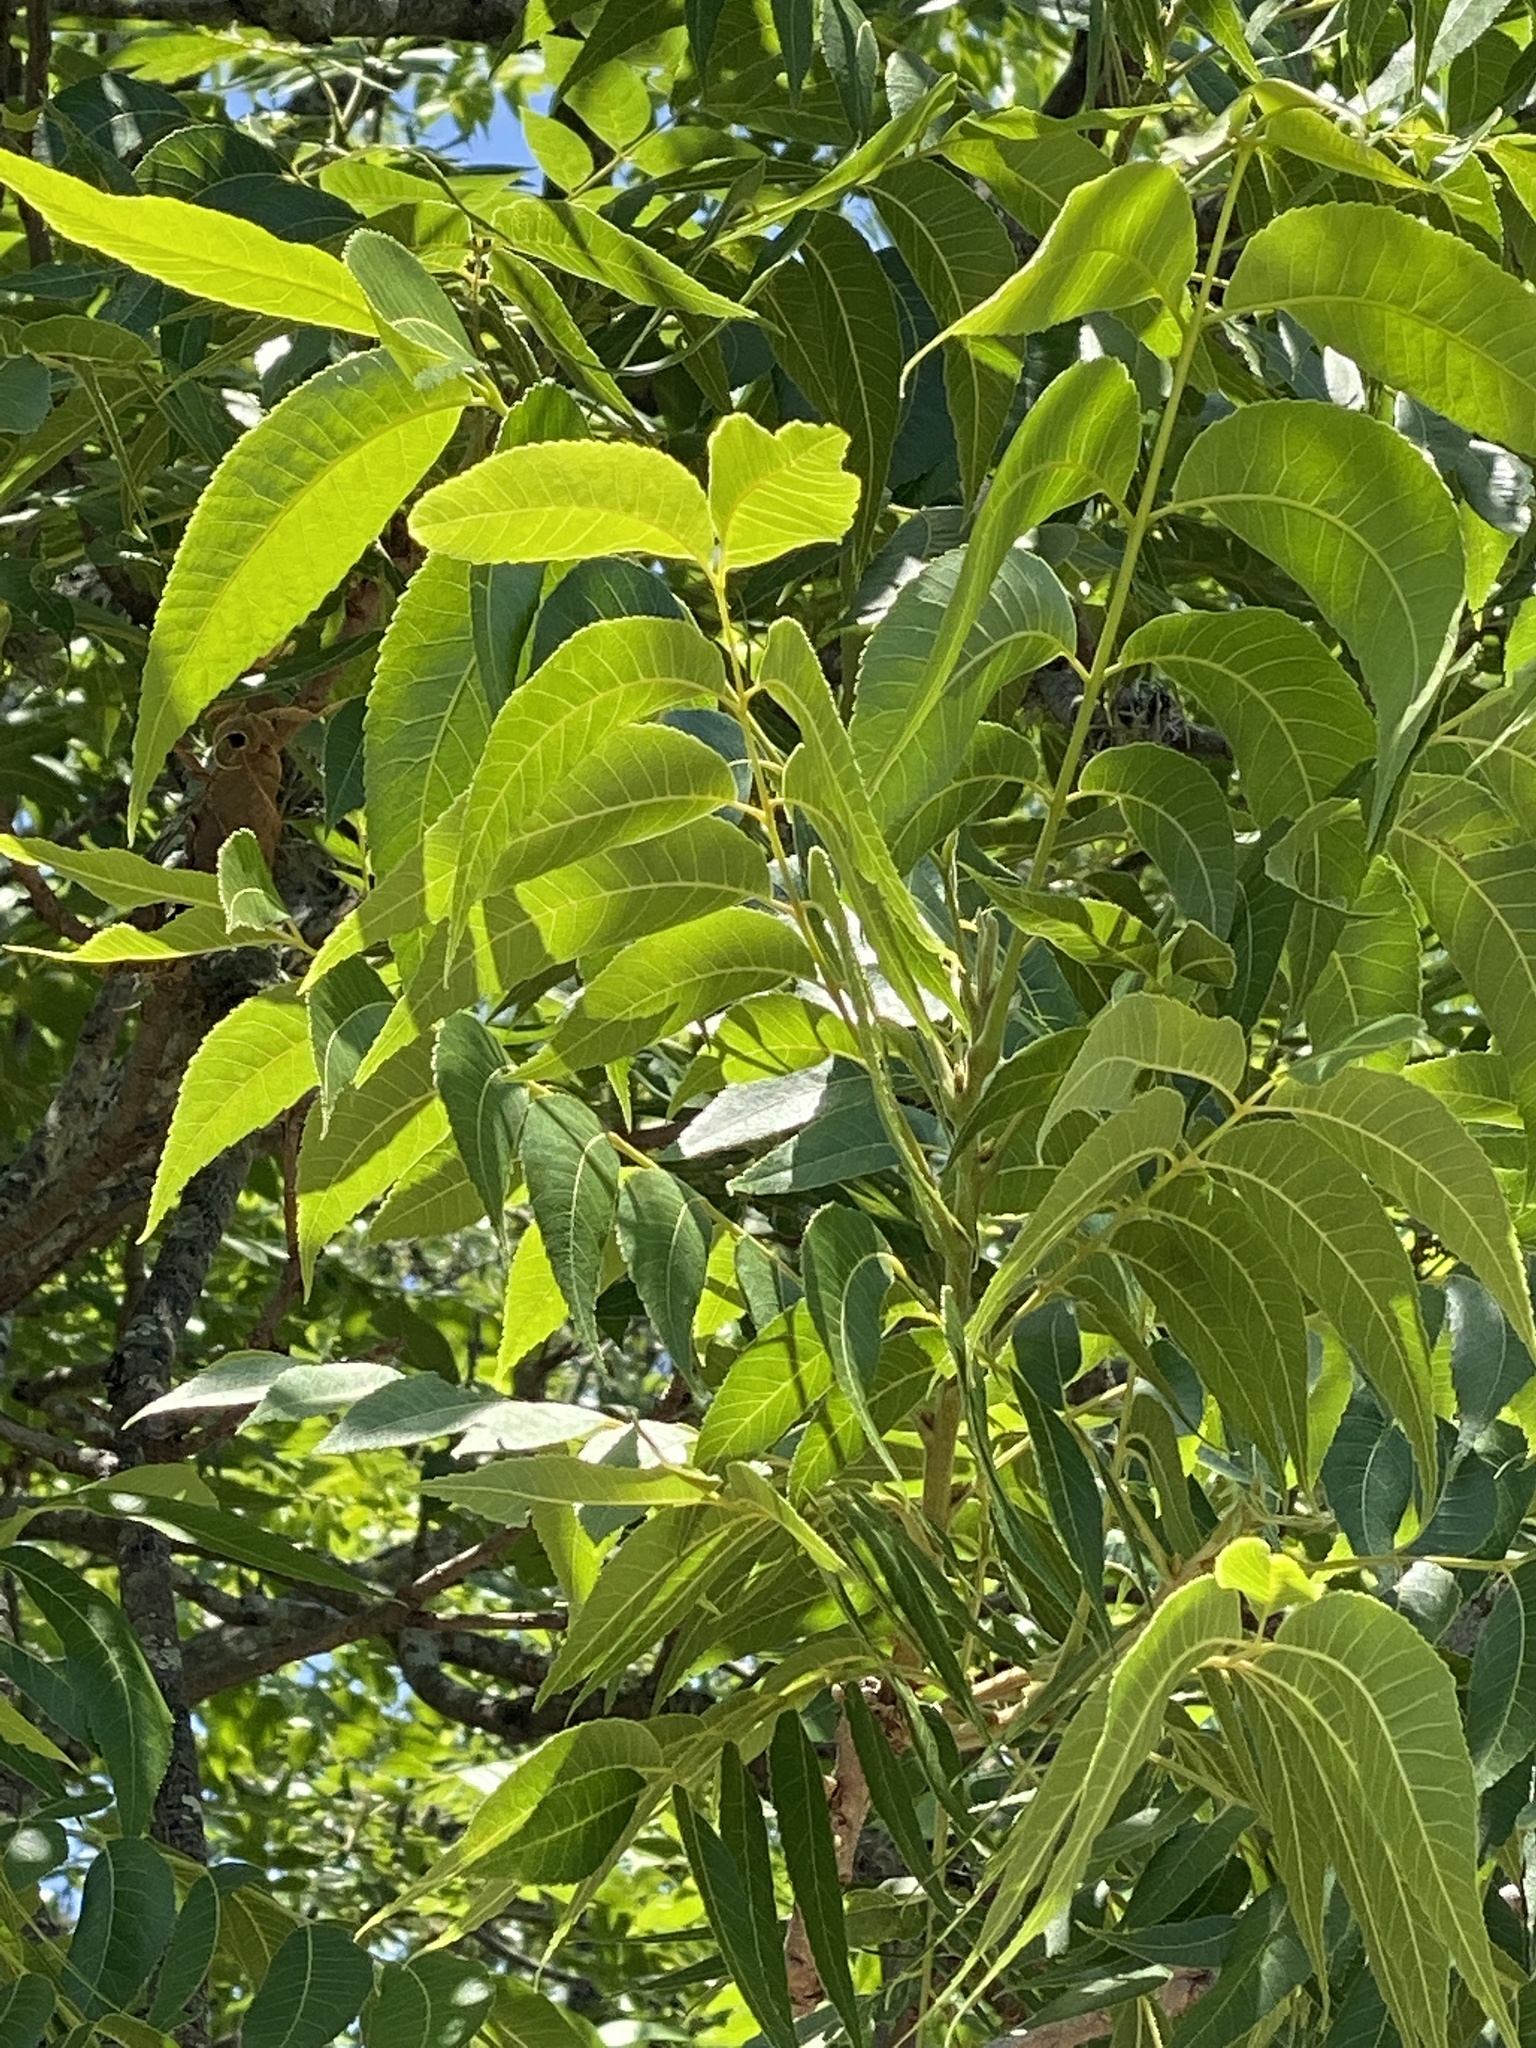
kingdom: Plantae
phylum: Tracheophyta
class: Magnoliopsida
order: Fagales
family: Juglandaceae
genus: Carya
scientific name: Carya illinoinensis
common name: Pecan
